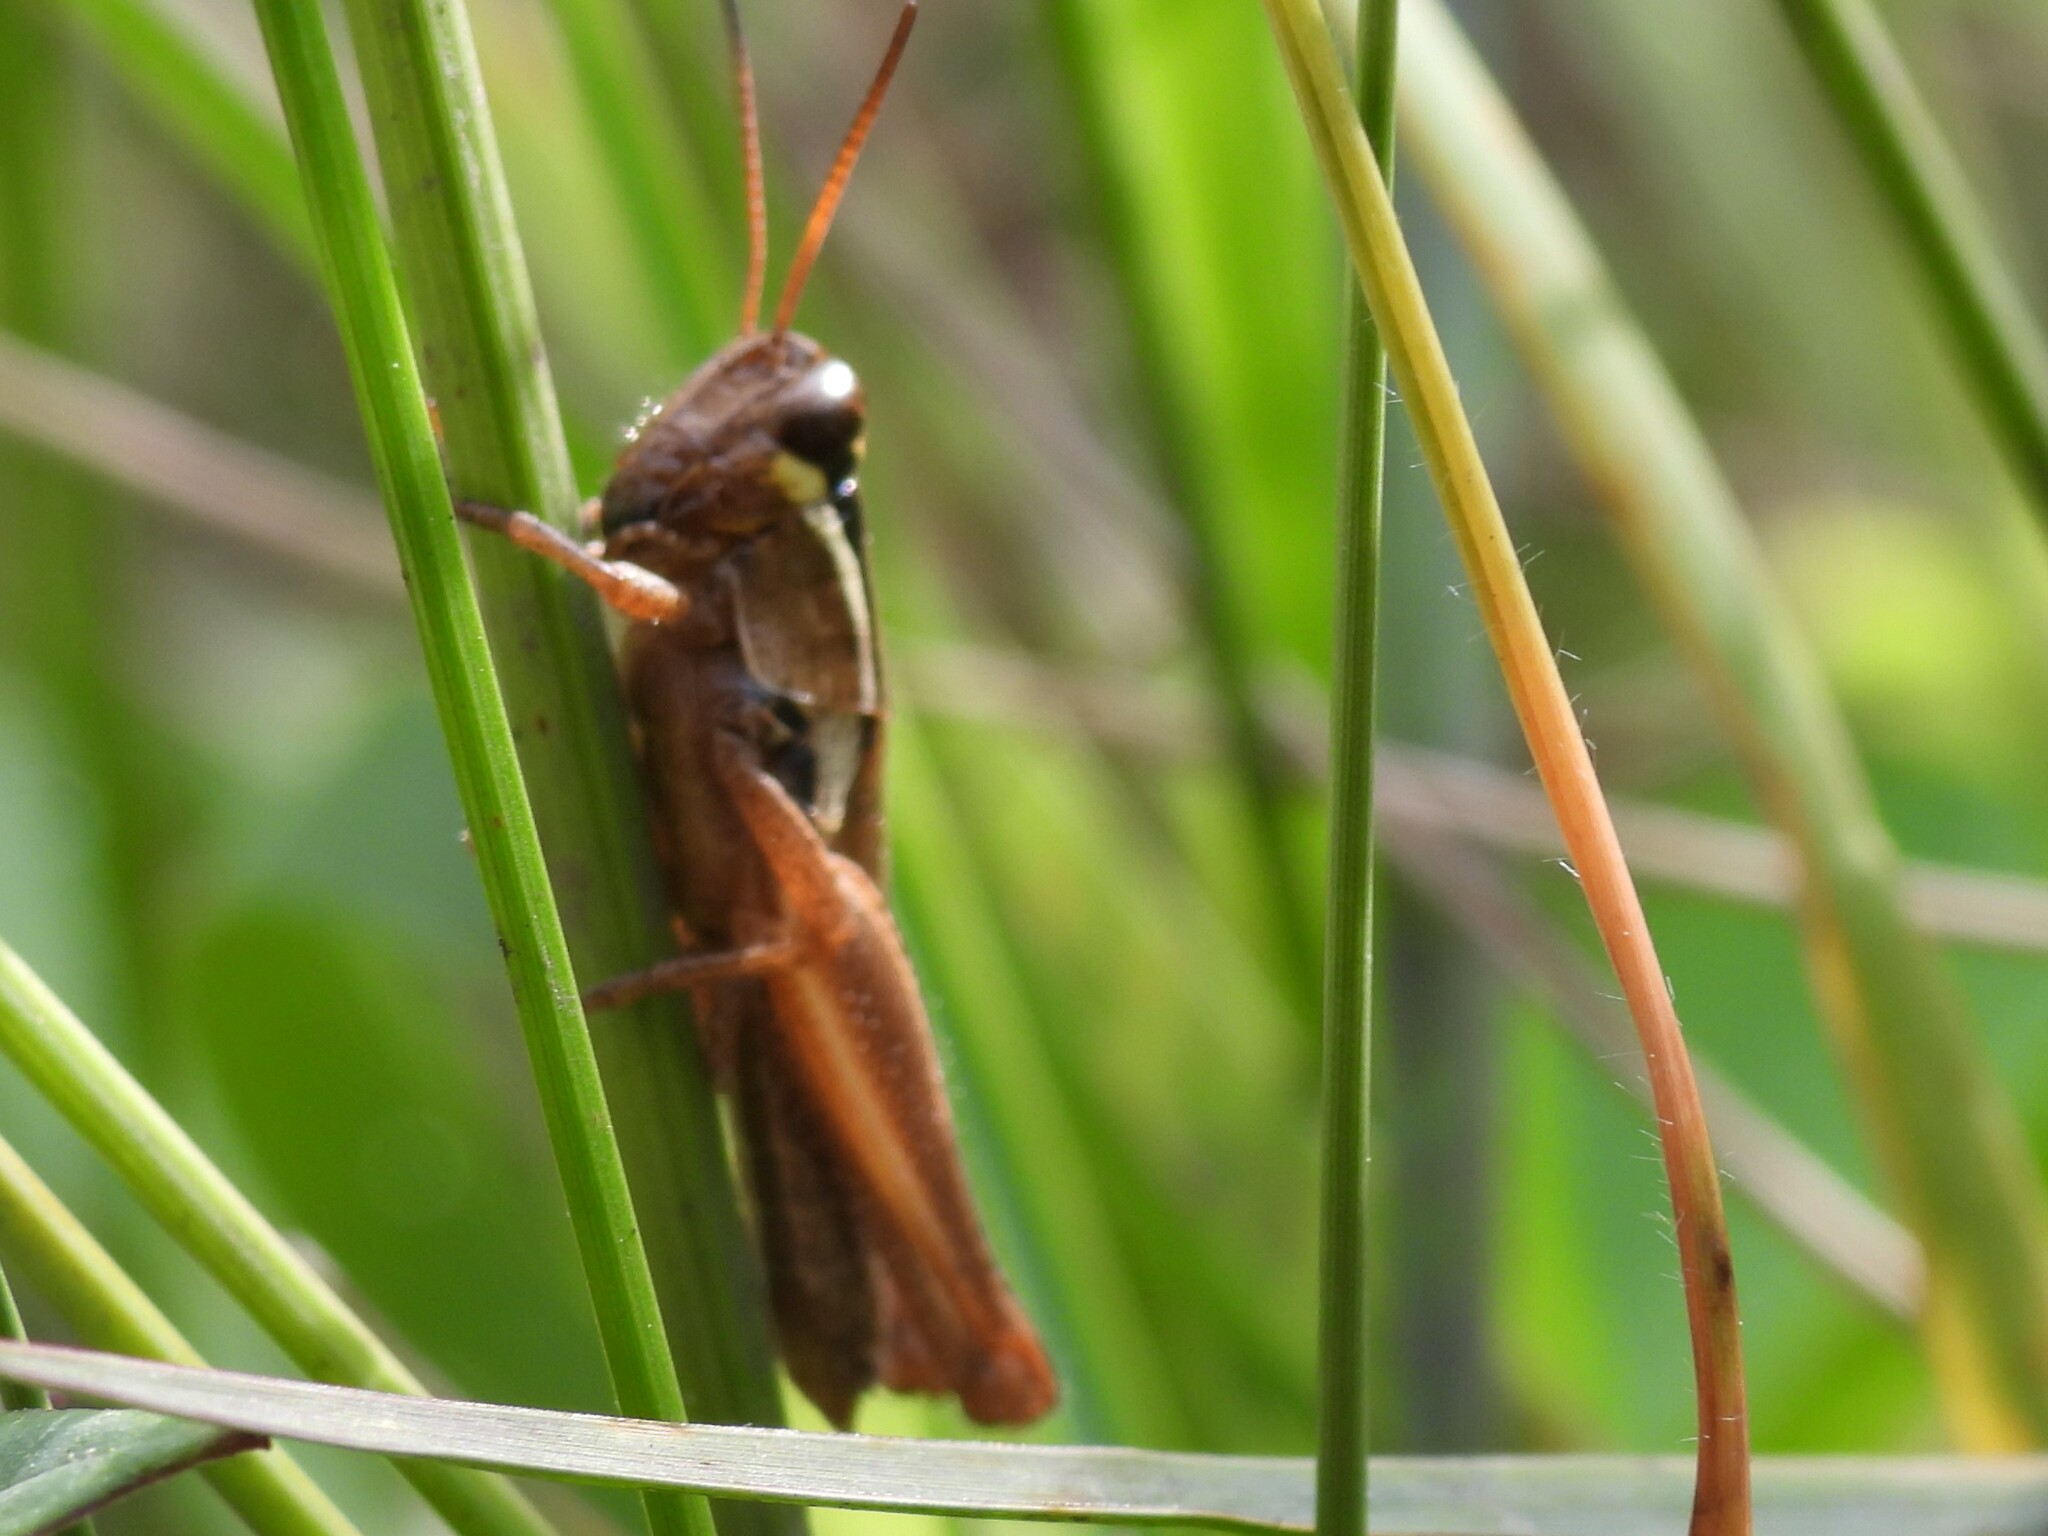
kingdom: Animalia
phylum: Arthropoda
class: Insecta
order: Orthoptera
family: Acrididae
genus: Paroxya
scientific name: Paroxya atlantica
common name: Atlantic grasshopper
